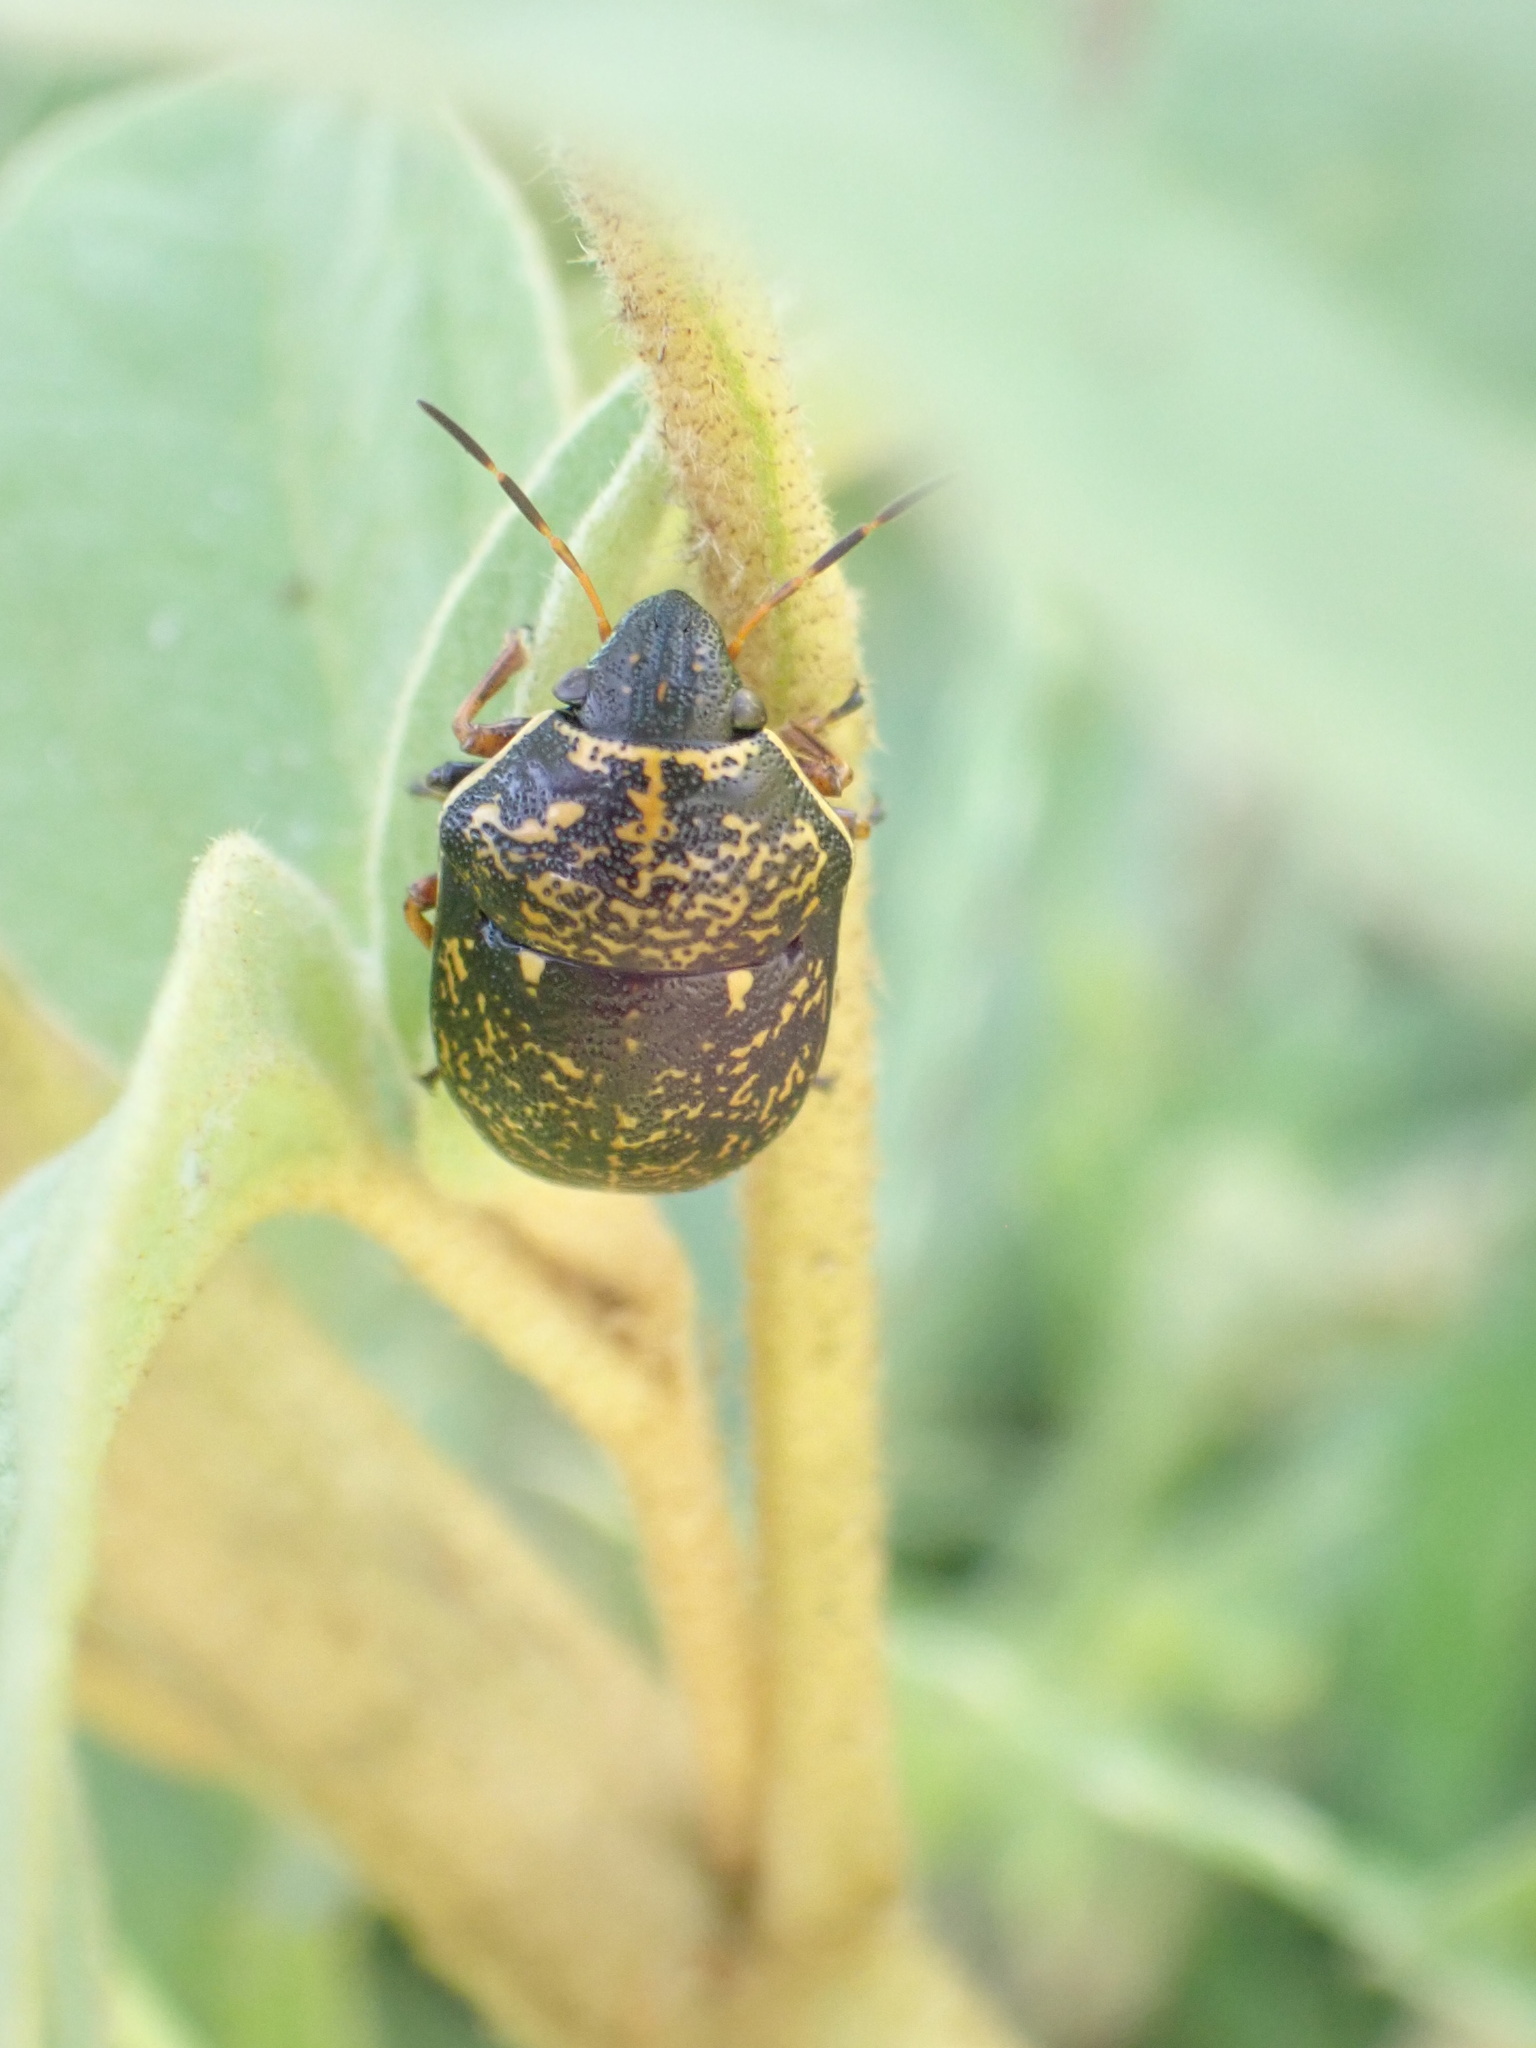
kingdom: Animalia
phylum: Arthropoda
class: Insecta
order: Hemiptera
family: Scutelleridae
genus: Orsilochides
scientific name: Orsilochides guttata
